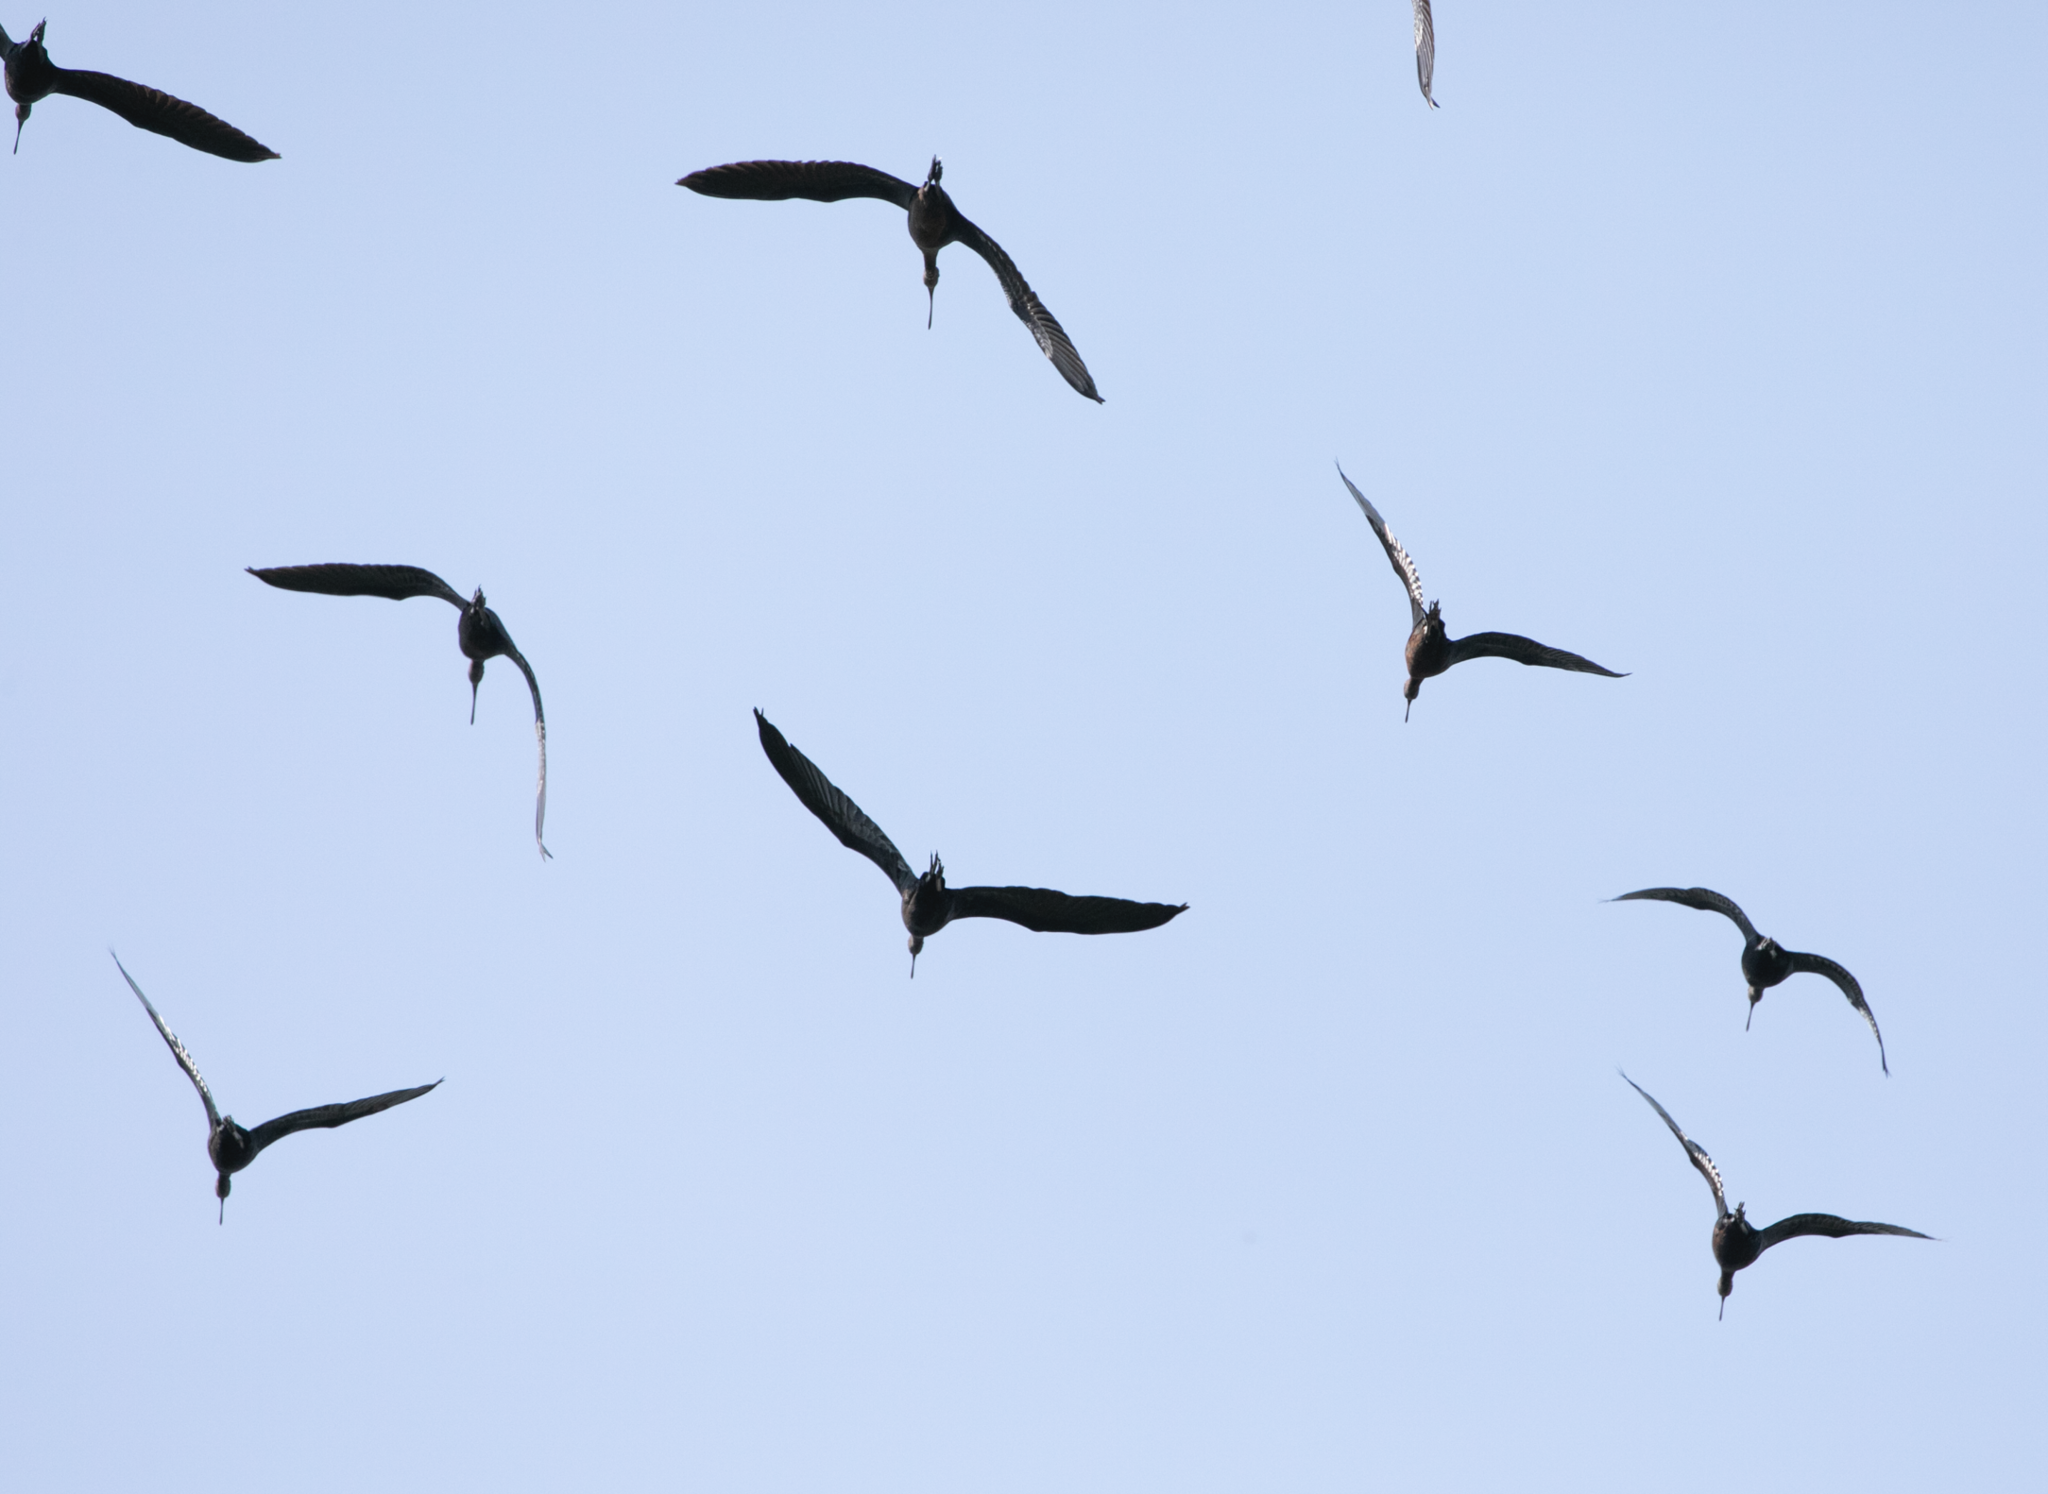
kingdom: Animalia
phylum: Chordata
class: Aves
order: Pelecaniformes
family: Threskiornithidae
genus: Plegadis
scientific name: Plegadis falcinellus
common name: Glossy ibis
